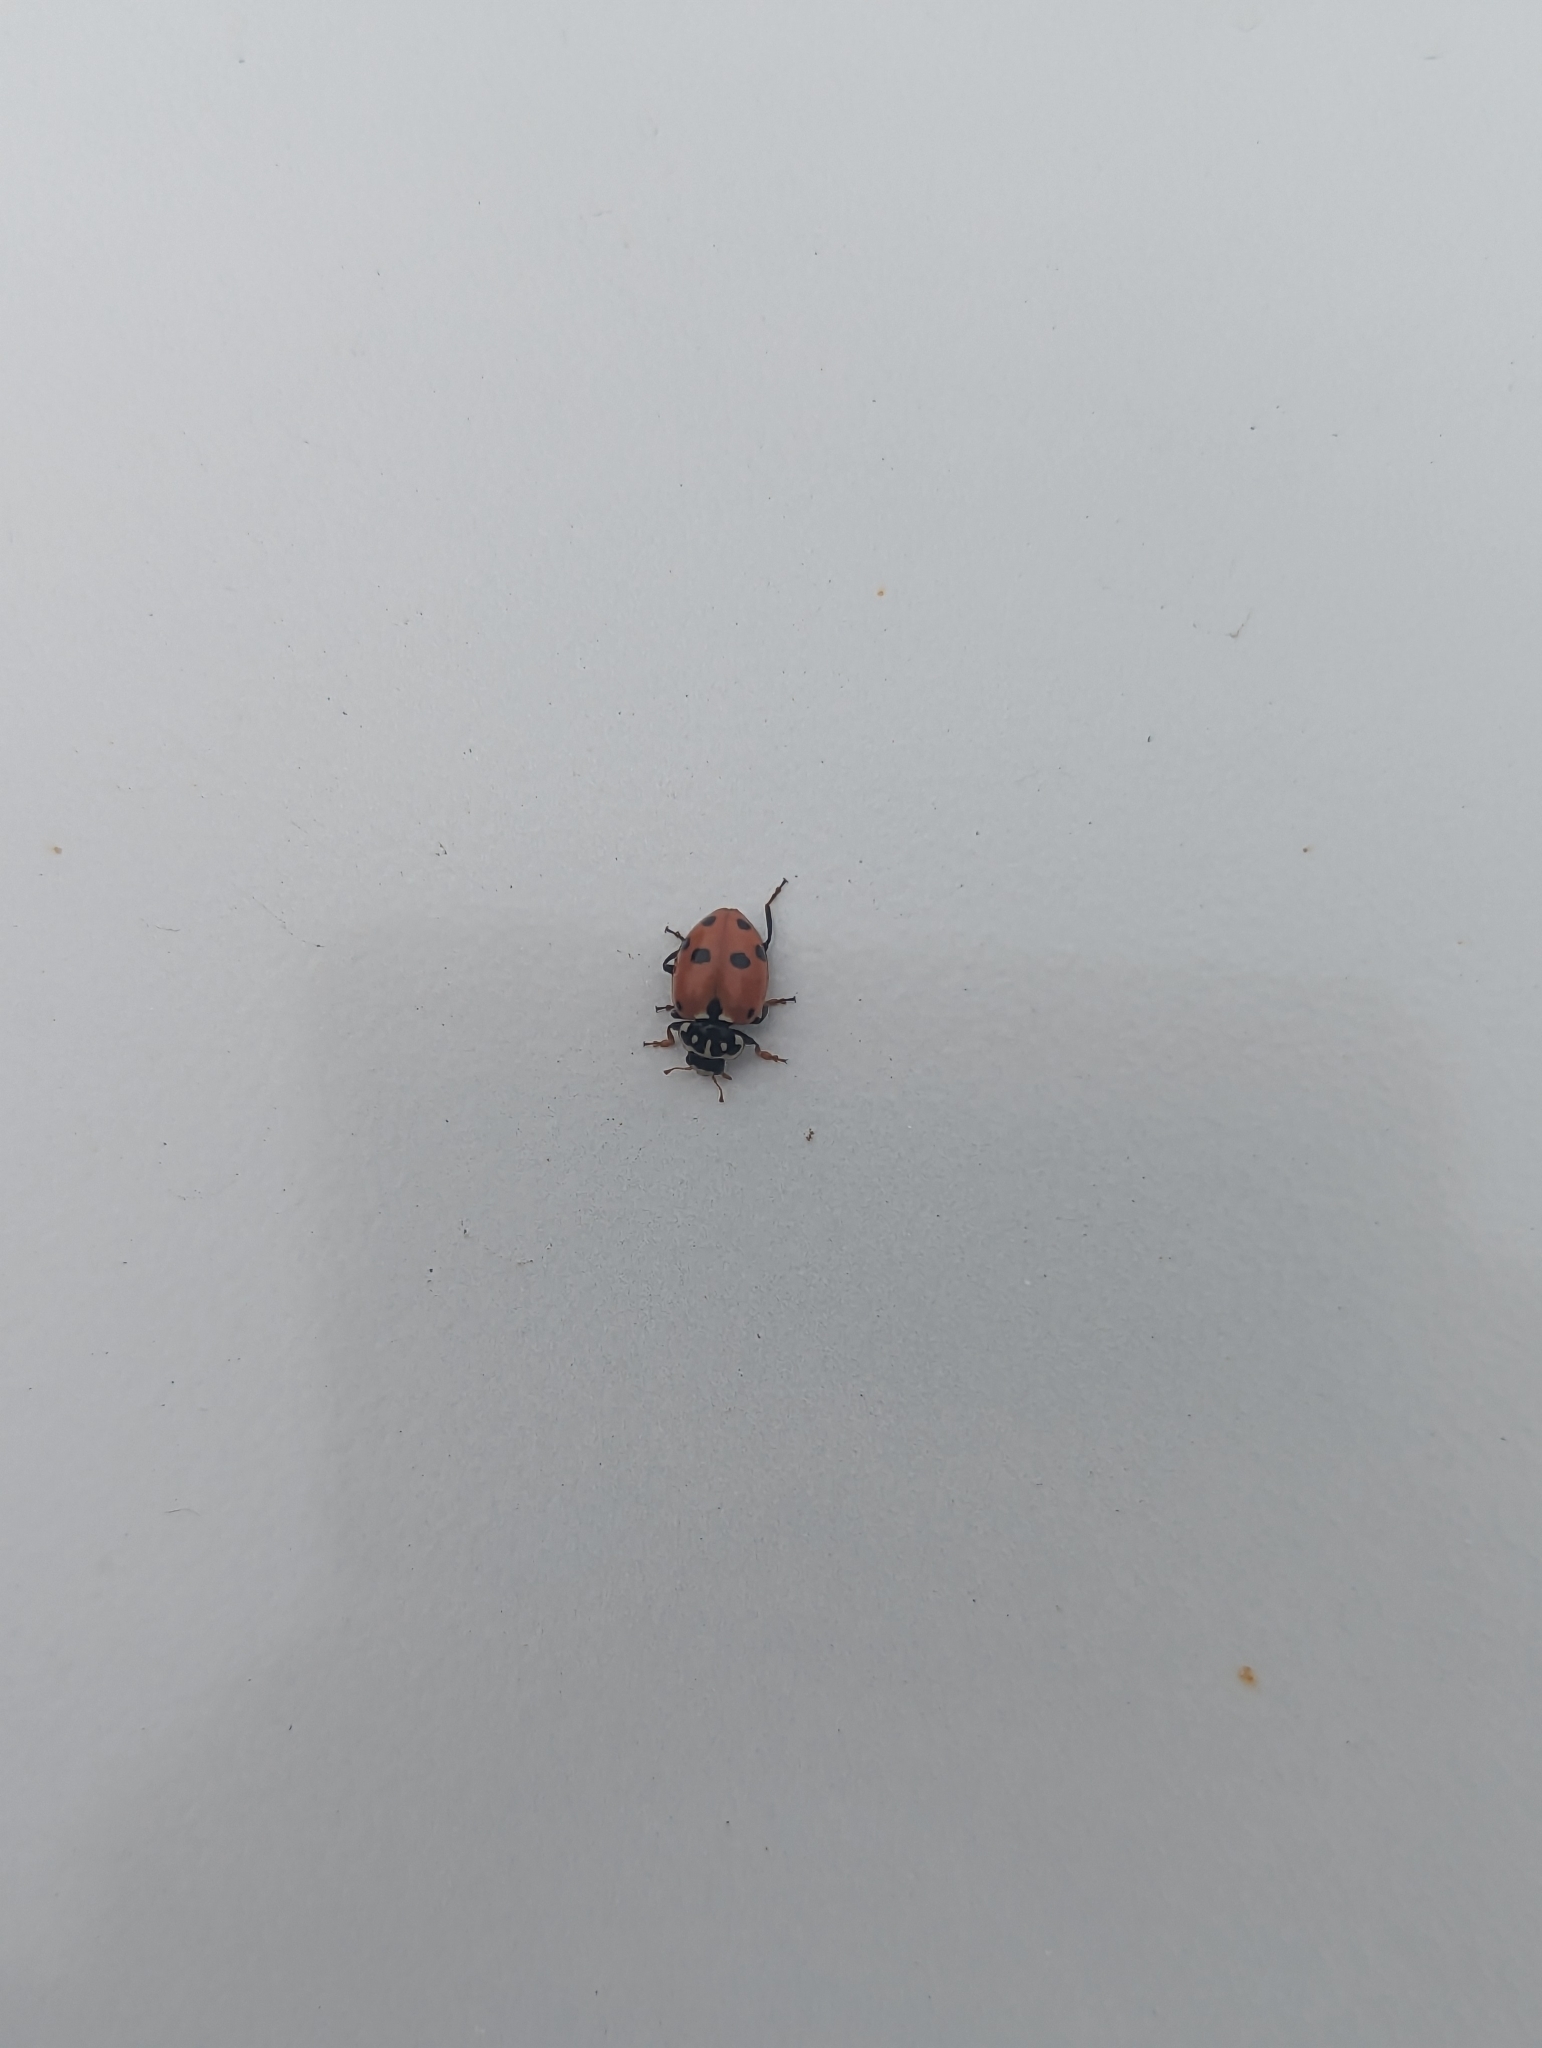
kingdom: Animalia
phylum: Arthropoda
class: Insecta
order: Coleoptera
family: Coccinellidae
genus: Hippodamia
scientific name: Hippodamia variegata
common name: Ladybird beetle
